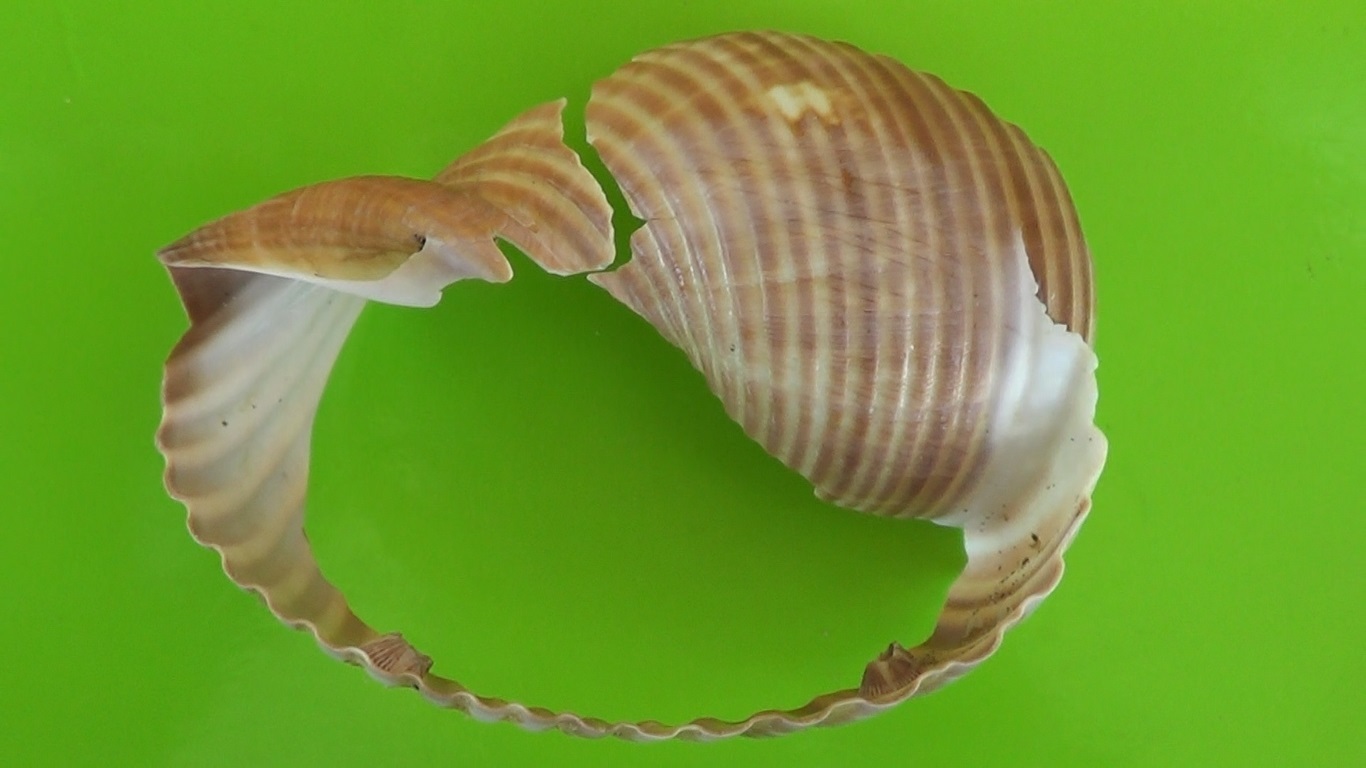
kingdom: Animalia
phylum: Mollusca
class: Gastropoda
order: Littorinimorpha
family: Tonnidae
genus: Tonna
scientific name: Tonna galea
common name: Giant tun
